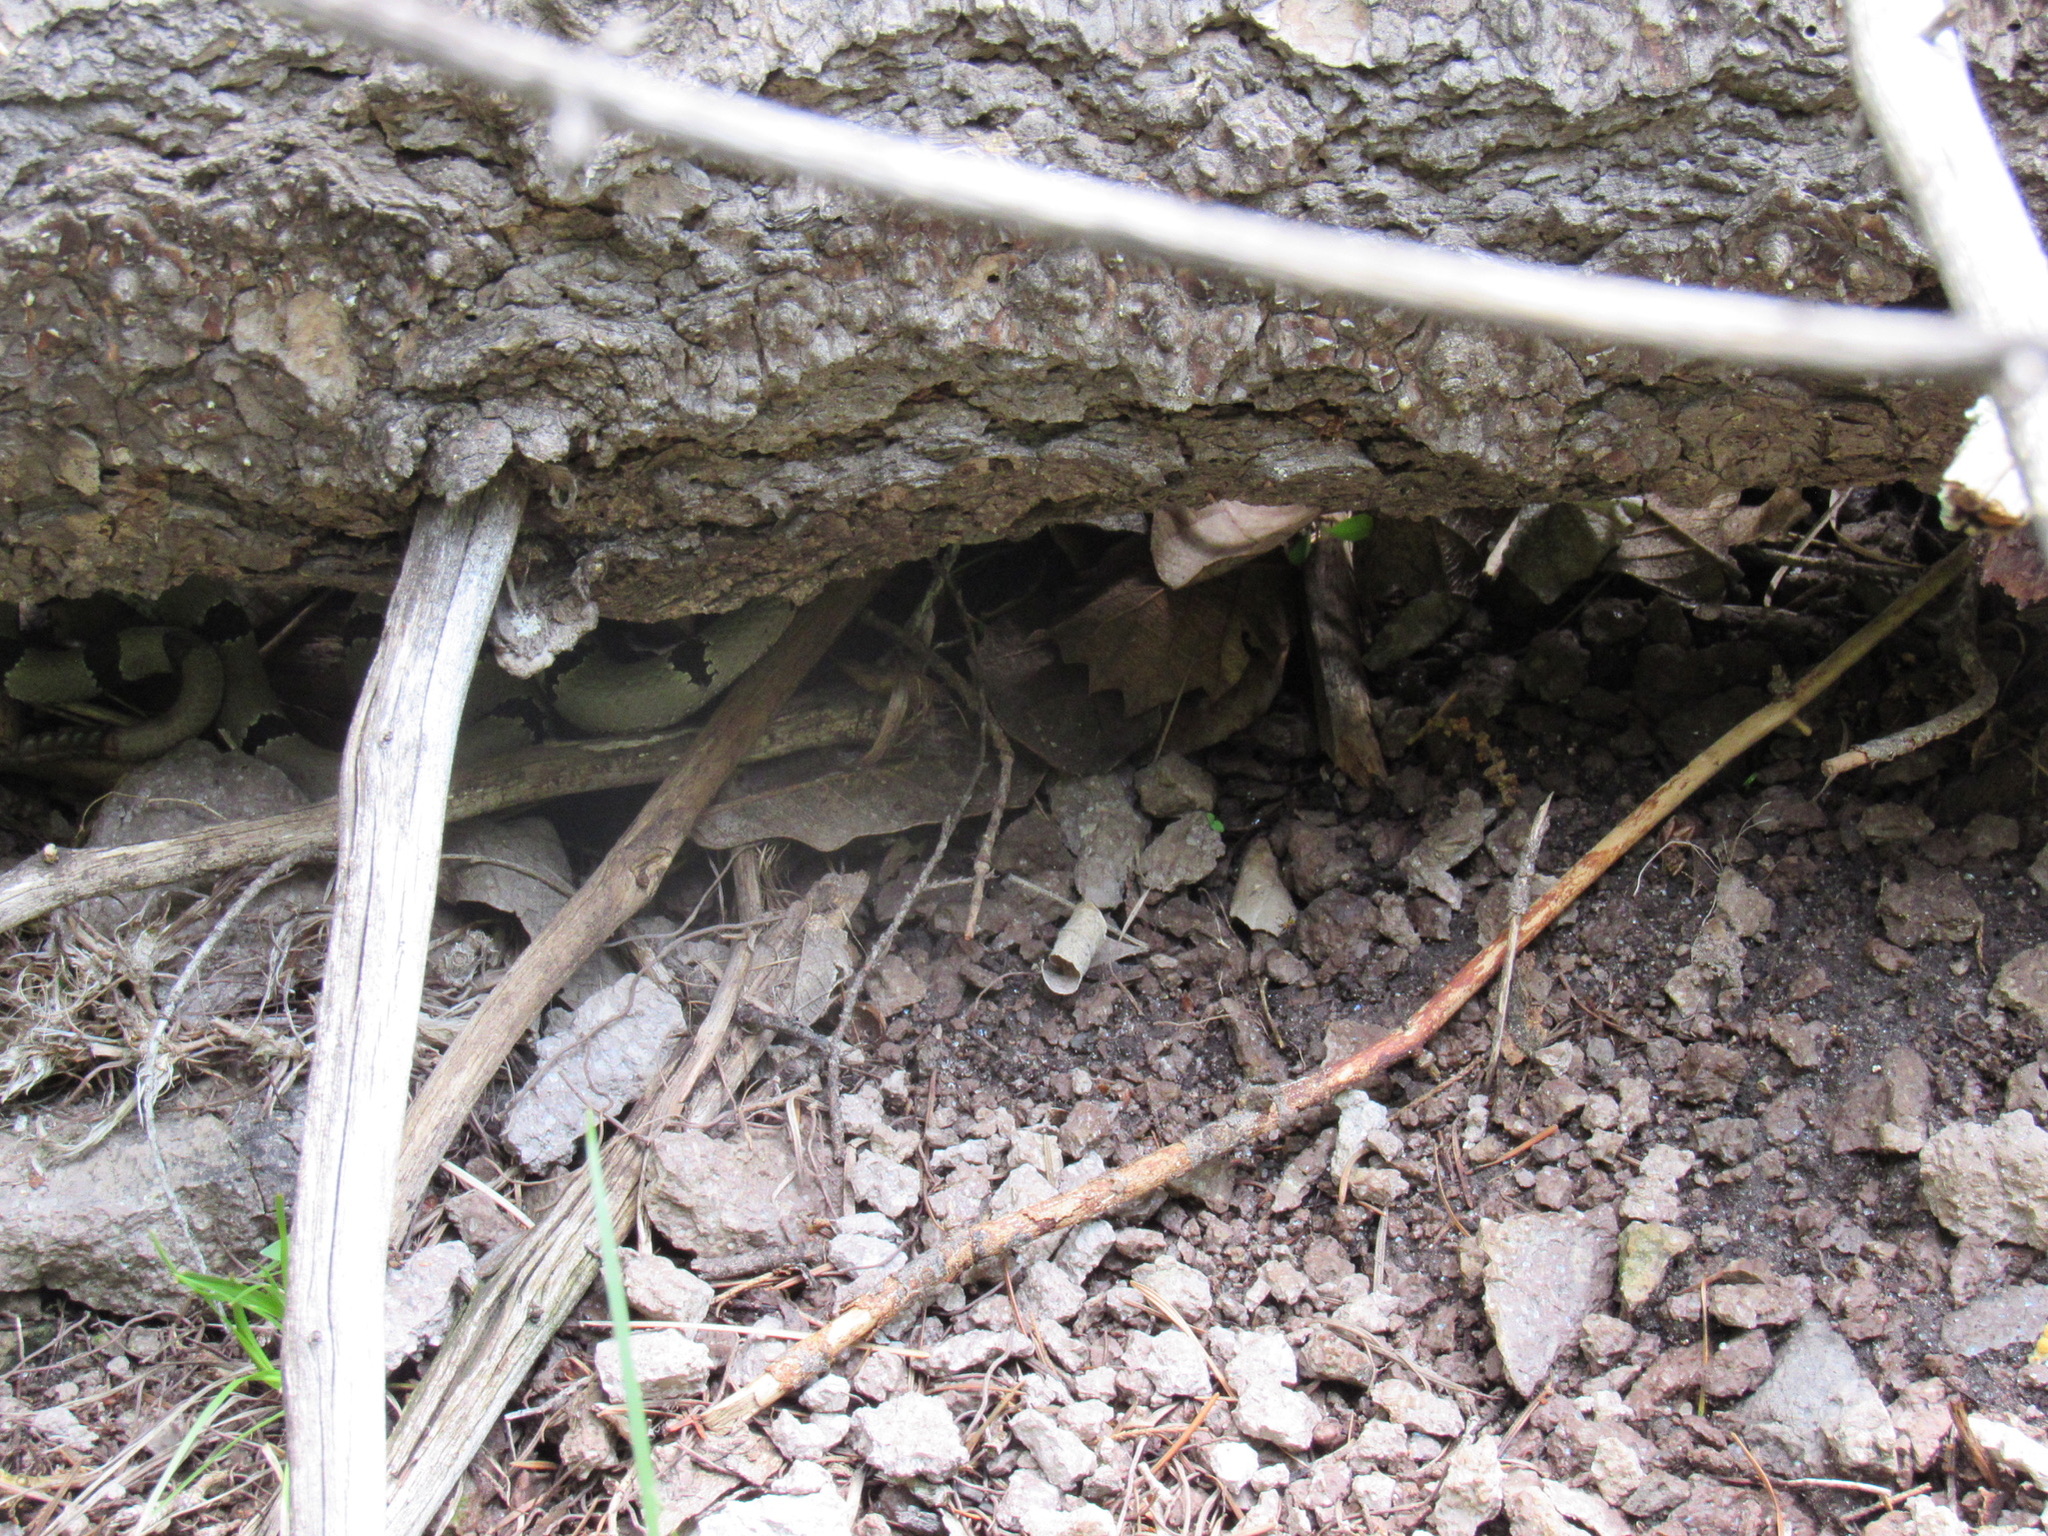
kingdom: Animalia
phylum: Chordata
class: Squamata
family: Viperidae
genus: Crotalus
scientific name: Crotalus lepidus
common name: Rock rattlesnake
